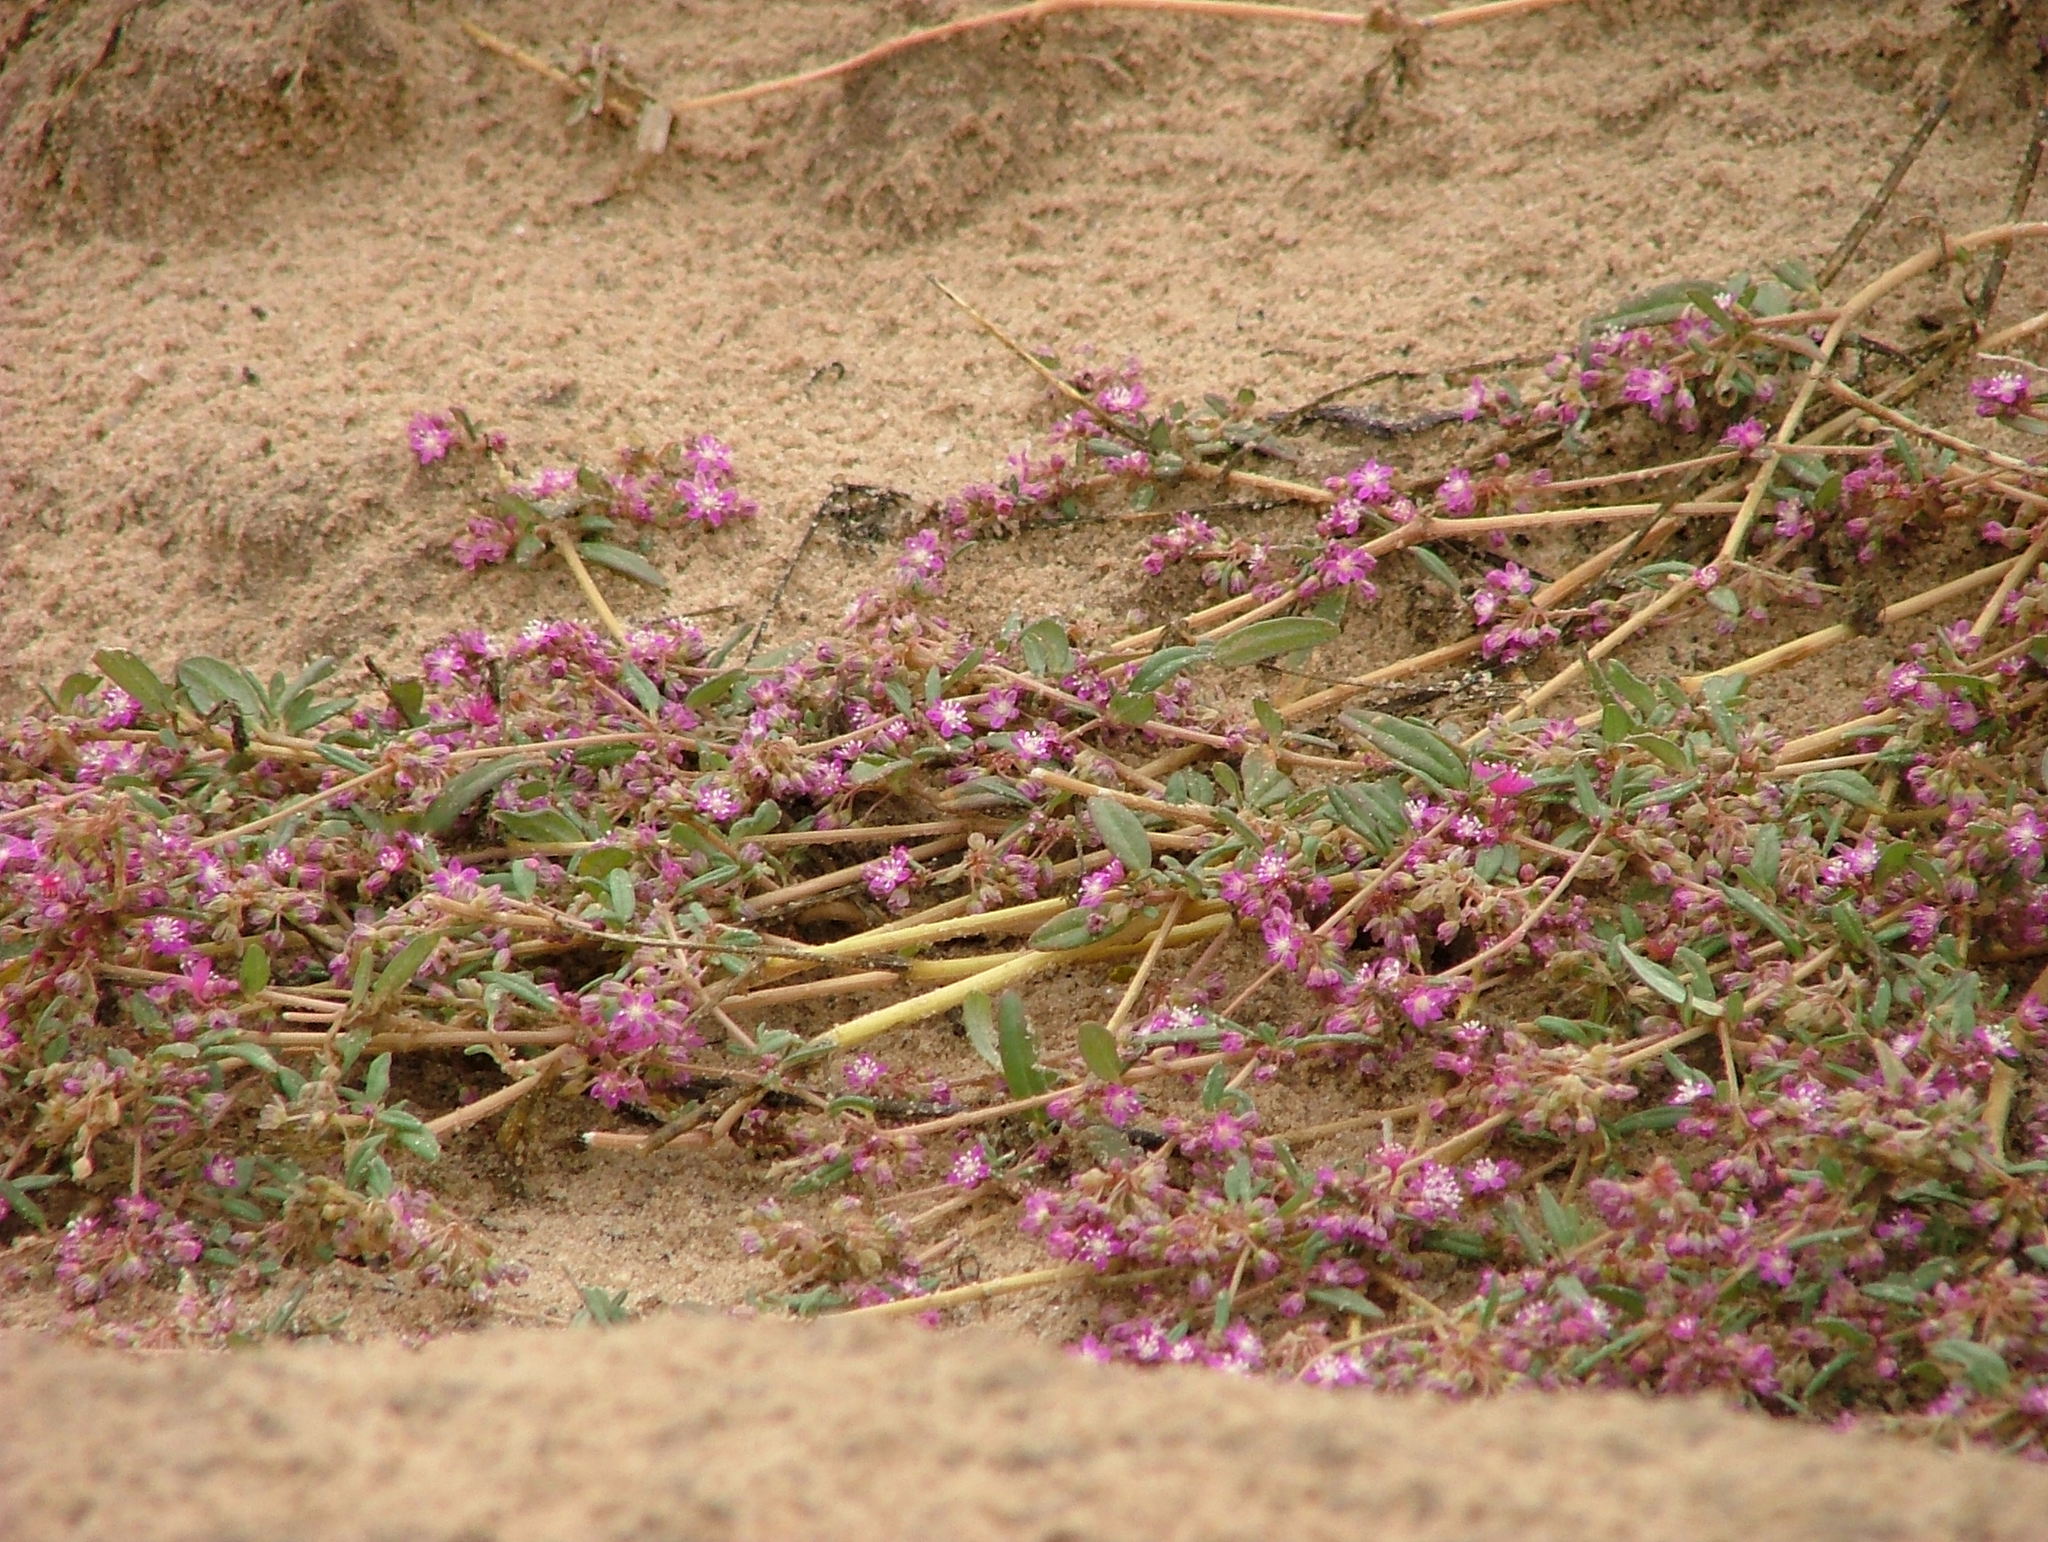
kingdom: Plantae
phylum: Tracheophyta
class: Magnoliopsida
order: Caryophyllales
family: Gisekiaceae
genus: Gisekia
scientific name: Gisekia pharnaceoides
